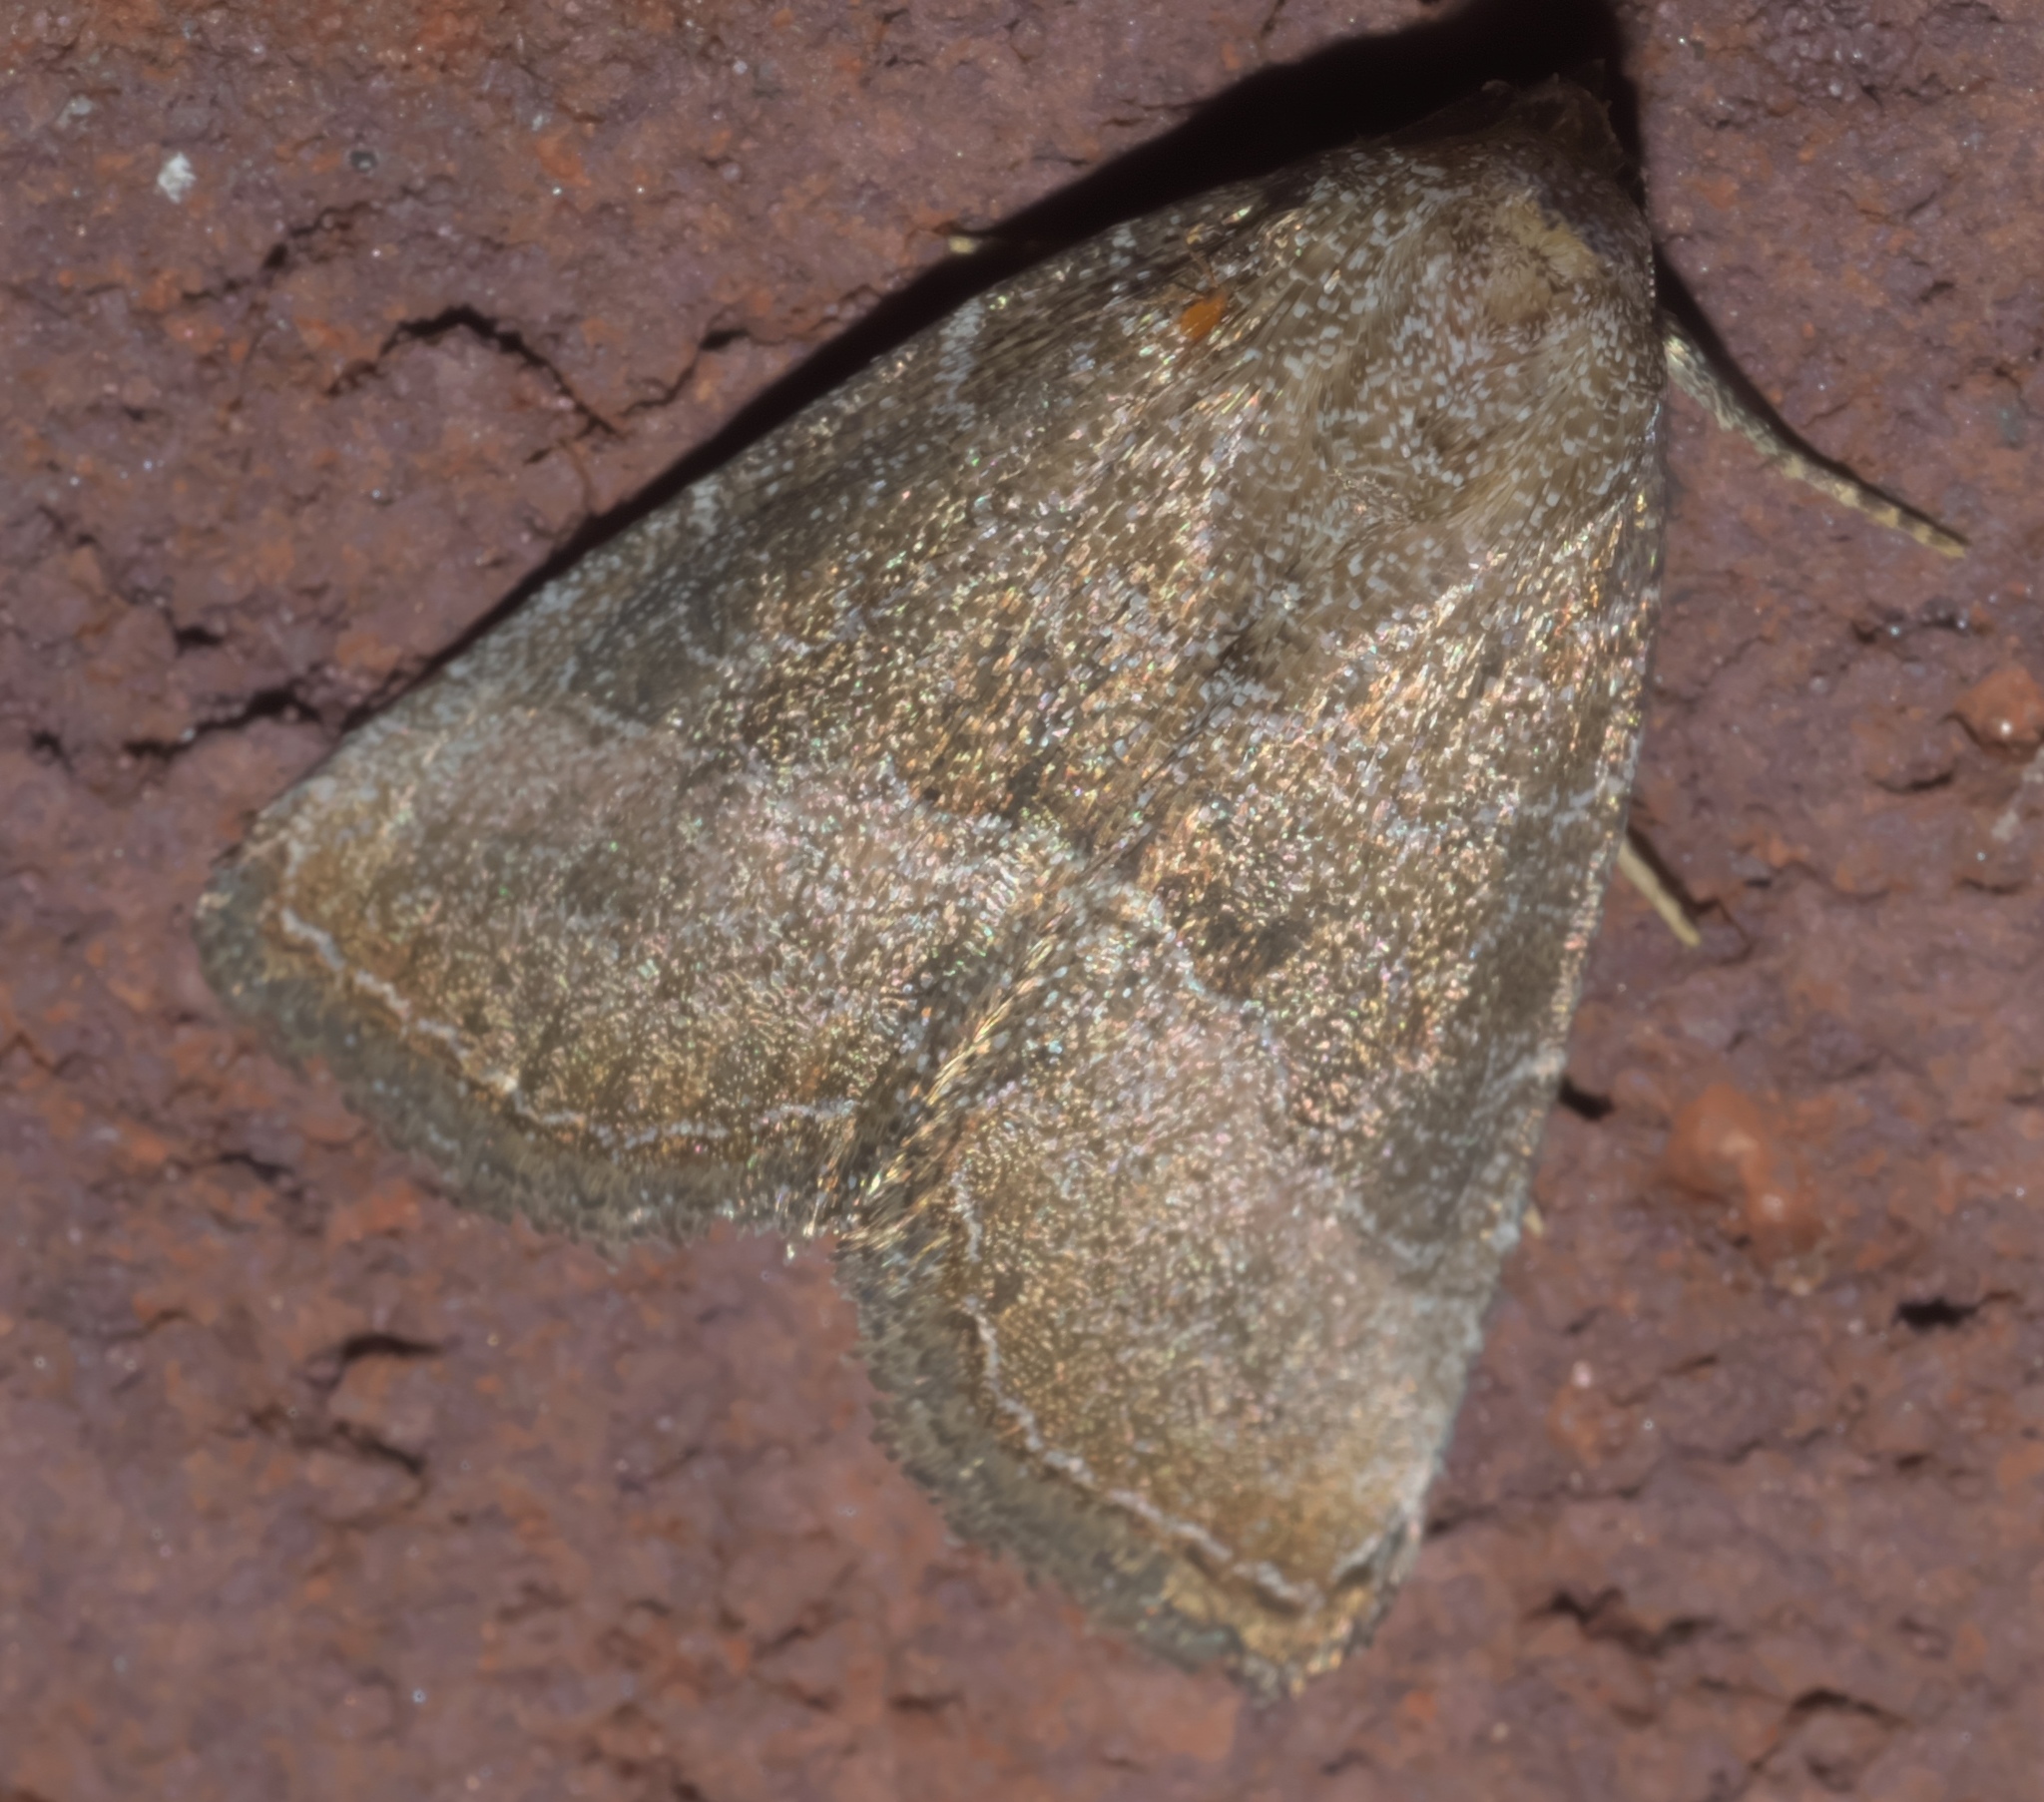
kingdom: Animalia
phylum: Arthropoda
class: Insecta
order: Lepidoptera
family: Noctuidae
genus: Ogdoconta
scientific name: Ogdoconta cinereola
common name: Common pinkband
